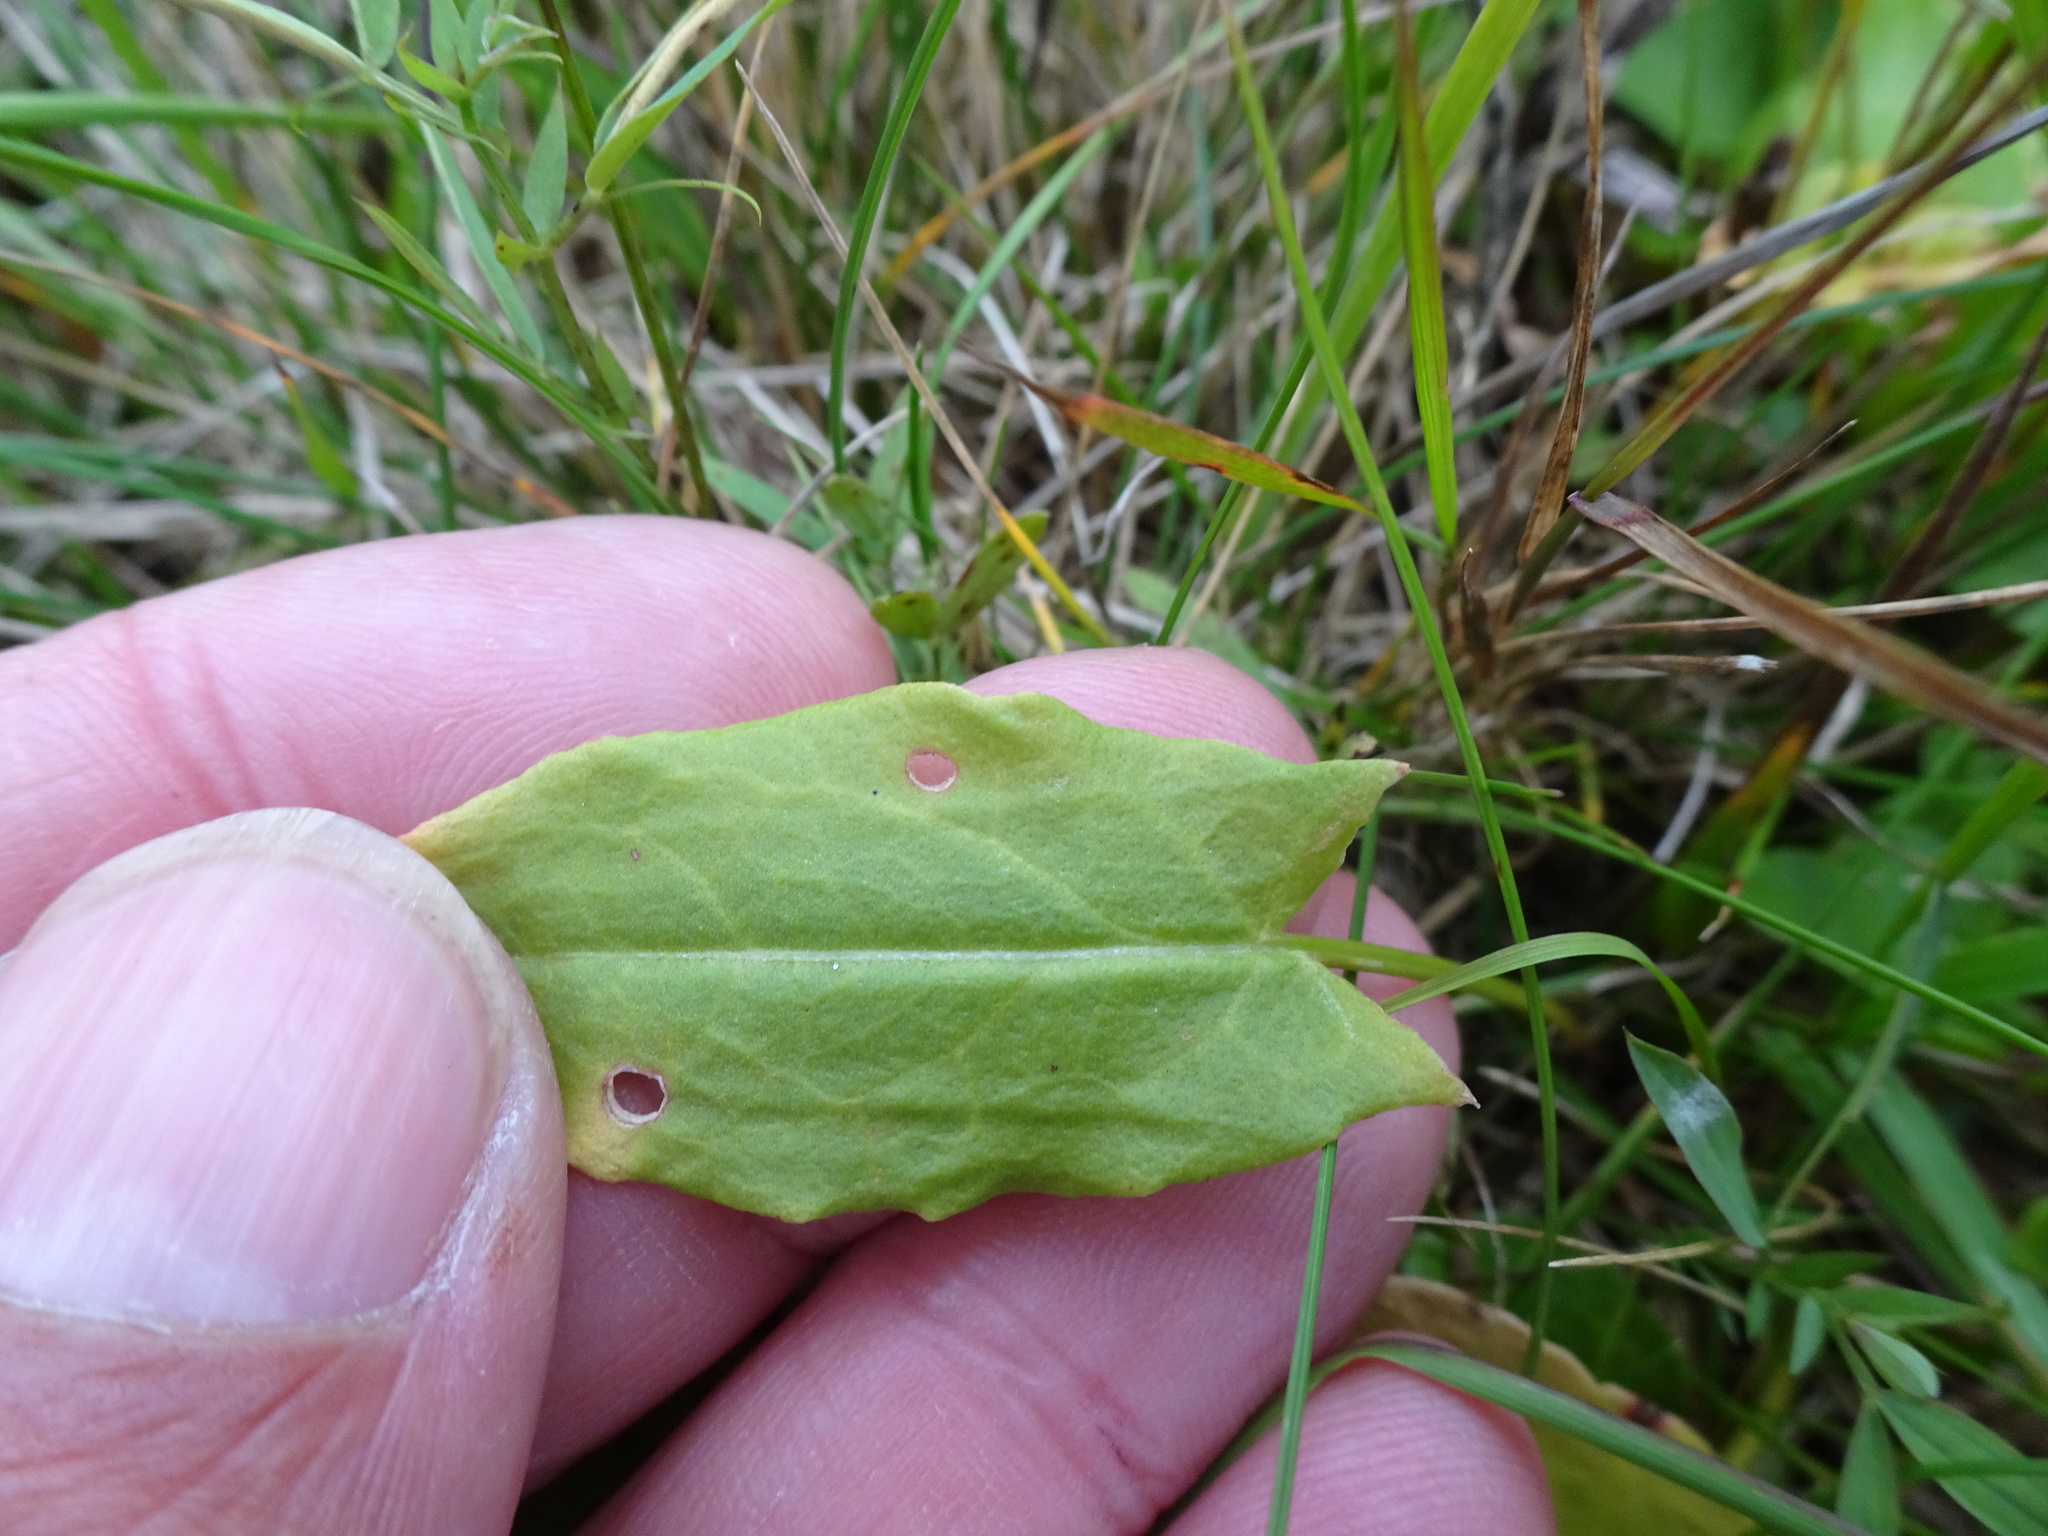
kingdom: Plantae
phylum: Tracheophyta
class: Magnoliopsida
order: Caryophyllales
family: Polygonaceae
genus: Rumex
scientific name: Rumex acetosa
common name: Garden sorrel
